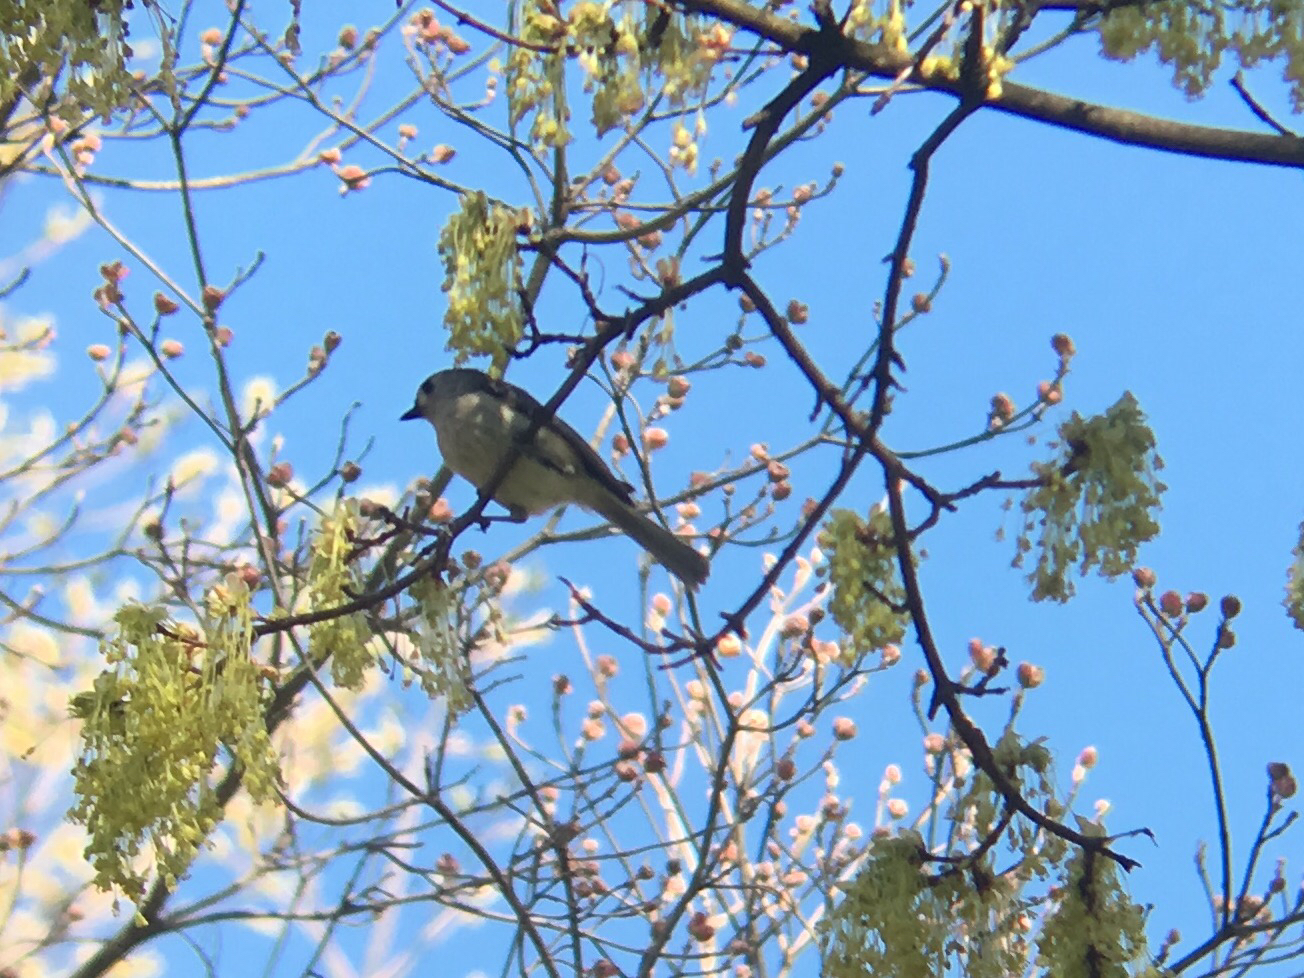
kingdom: Animalia
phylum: Chordata
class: Aves
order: Passeriformes
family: Paridae
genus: Baeolophus
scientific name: Baeolophus bicolor
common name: Tufted titmouse
